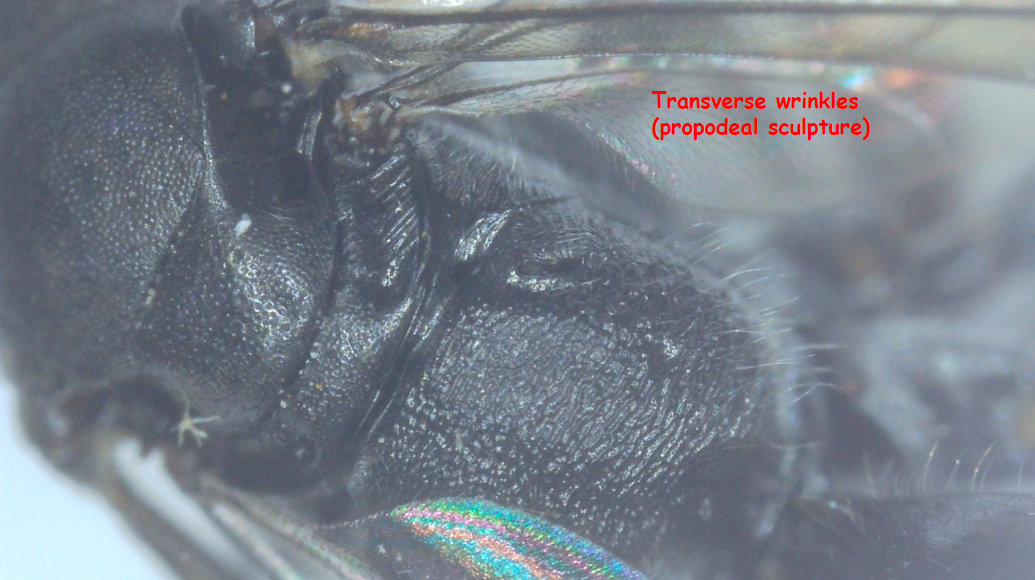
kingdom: Animalia
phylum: Arthropoda
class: Insecta
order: Hymenoptera
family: Pompilidae
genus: Deuteragenia
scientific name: Deuteragenia variegata
